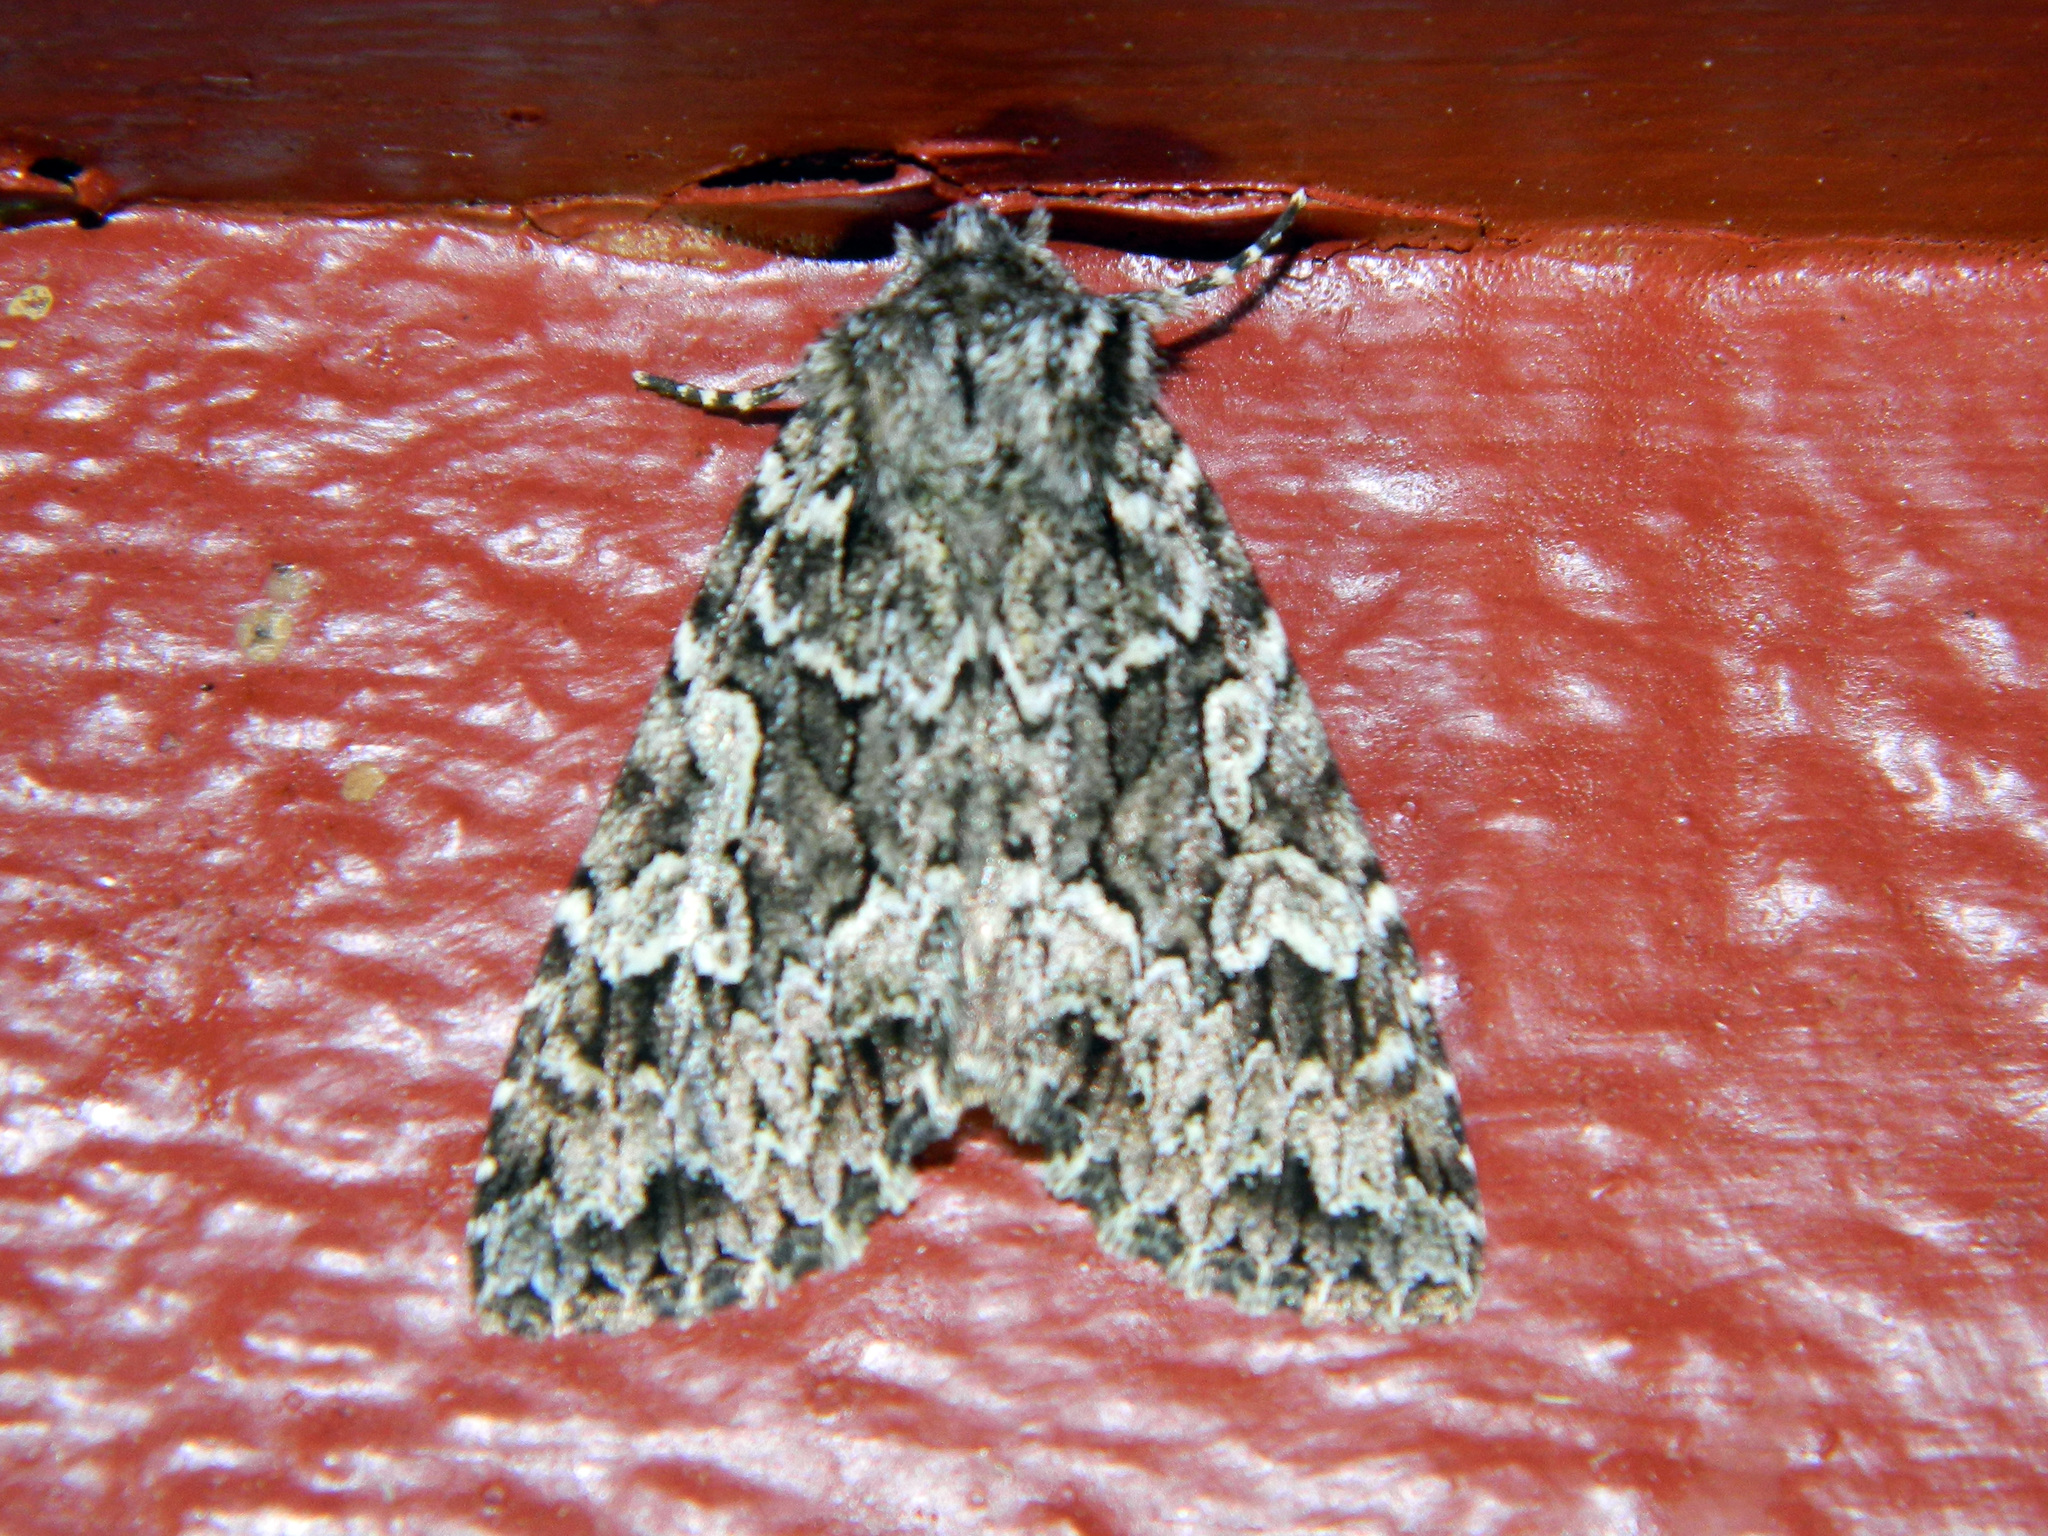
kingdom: Animalia
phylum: Arthropoda
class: Insecta
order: Lepidoptera
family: Noctuidae
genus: Platypolia
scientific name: Platypolia anceps
